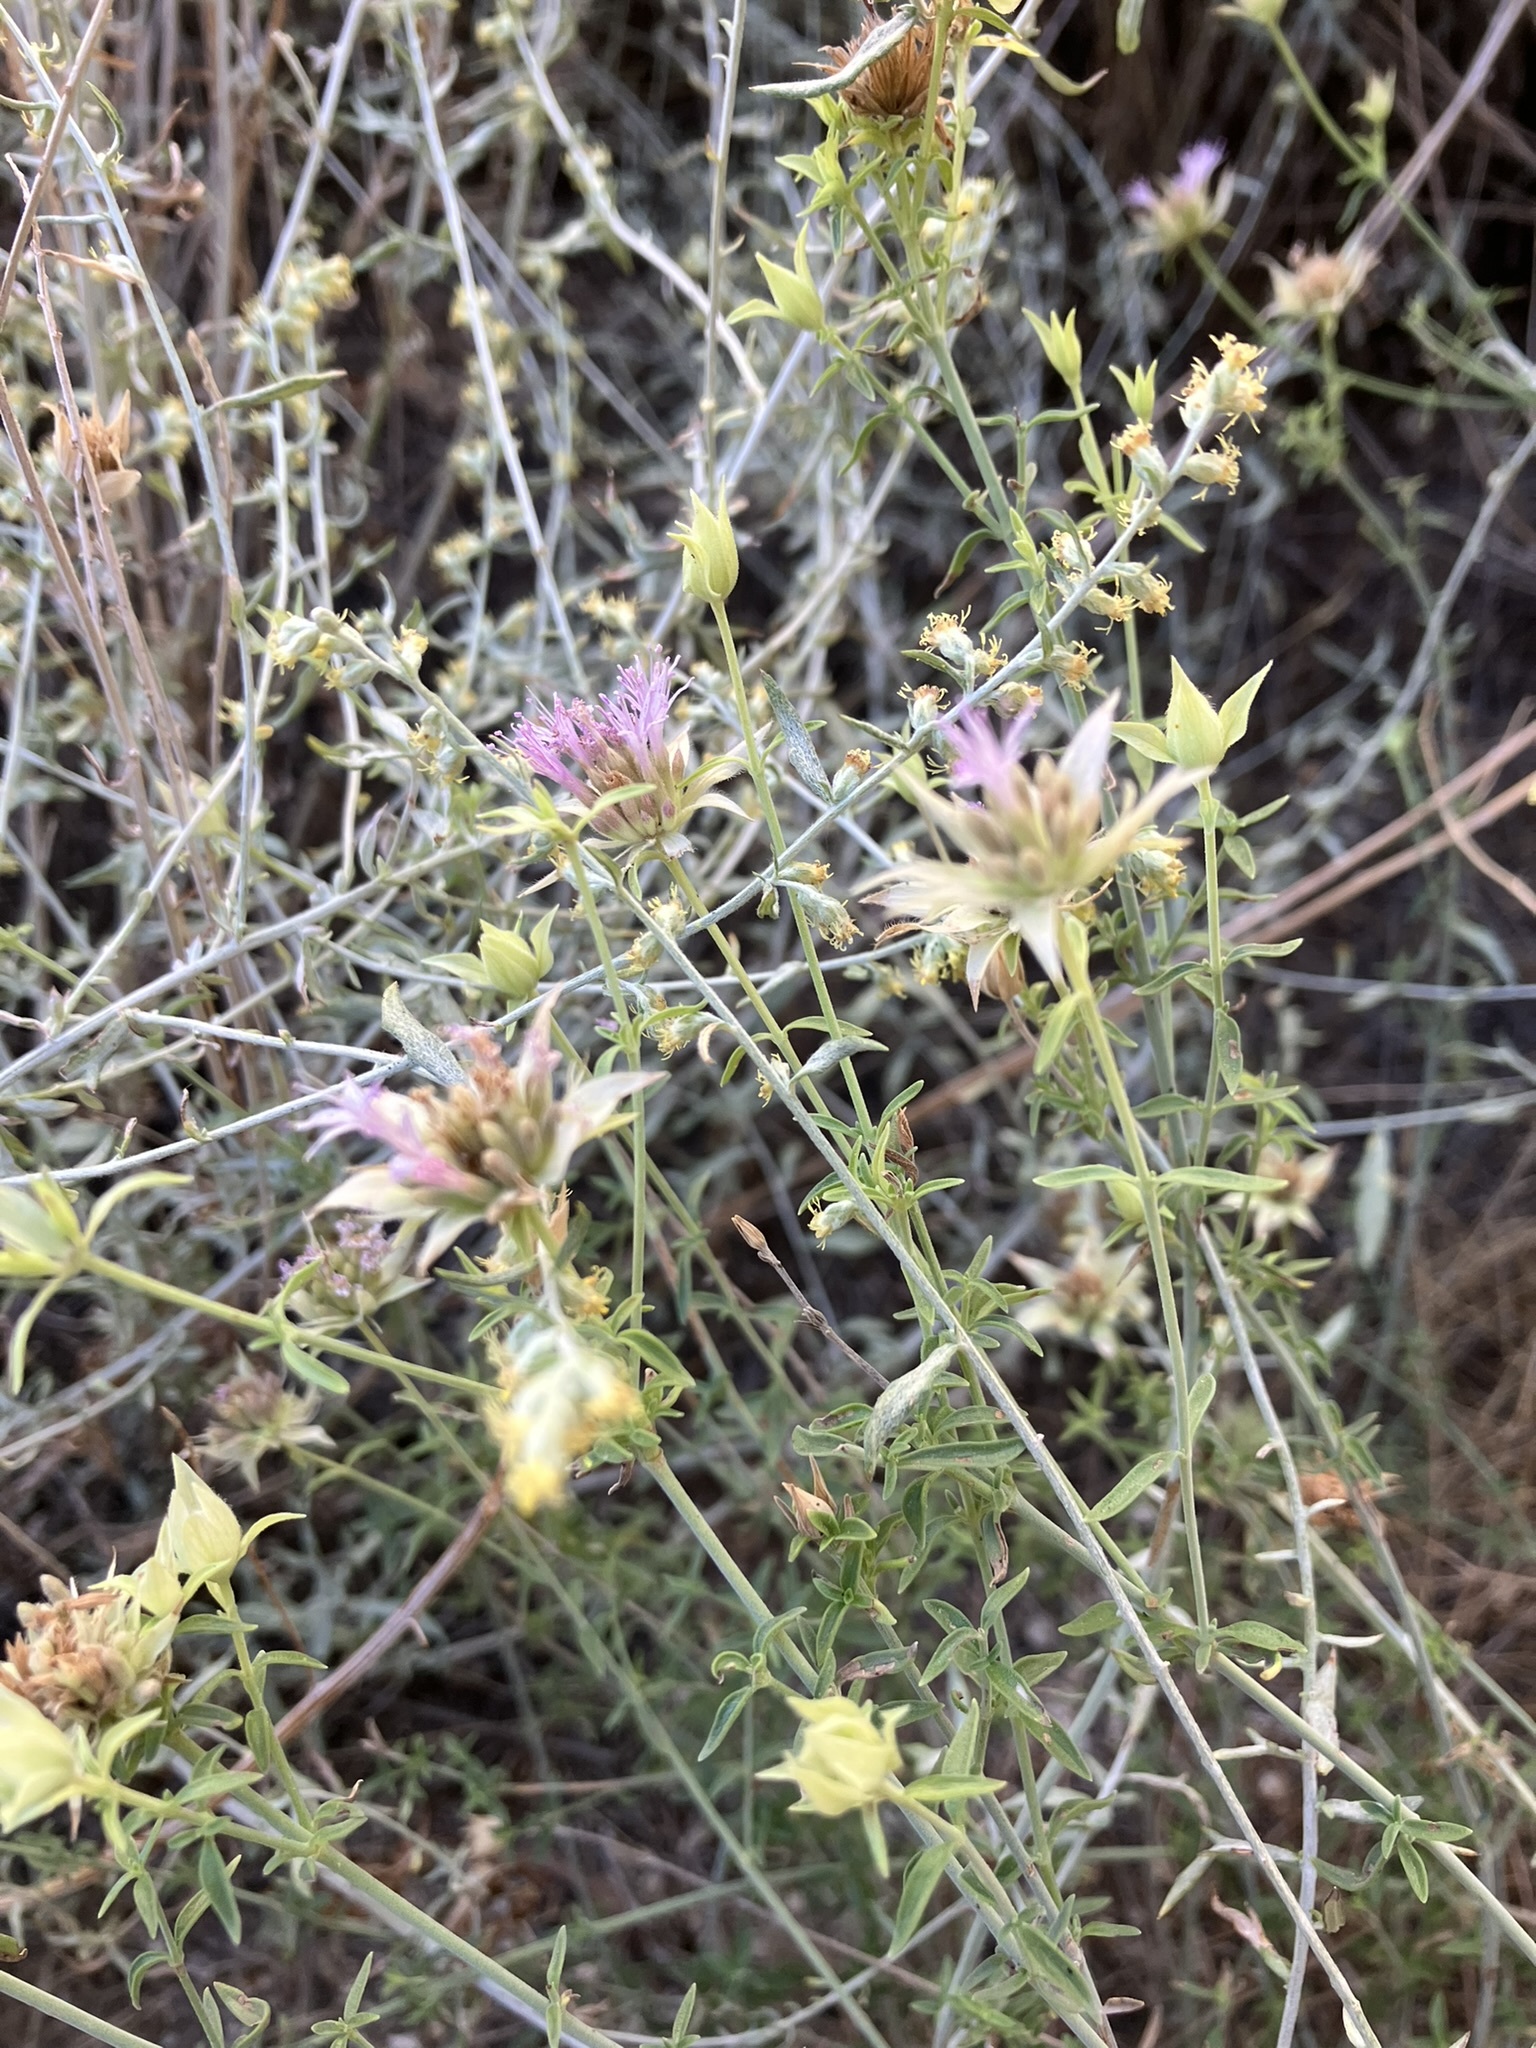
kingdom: Plantae
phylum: Tracheophyta
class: Magnoliopsida
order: Lamiales
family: Lamiaceae
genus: Monardella
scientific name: Monardella mojavensis
